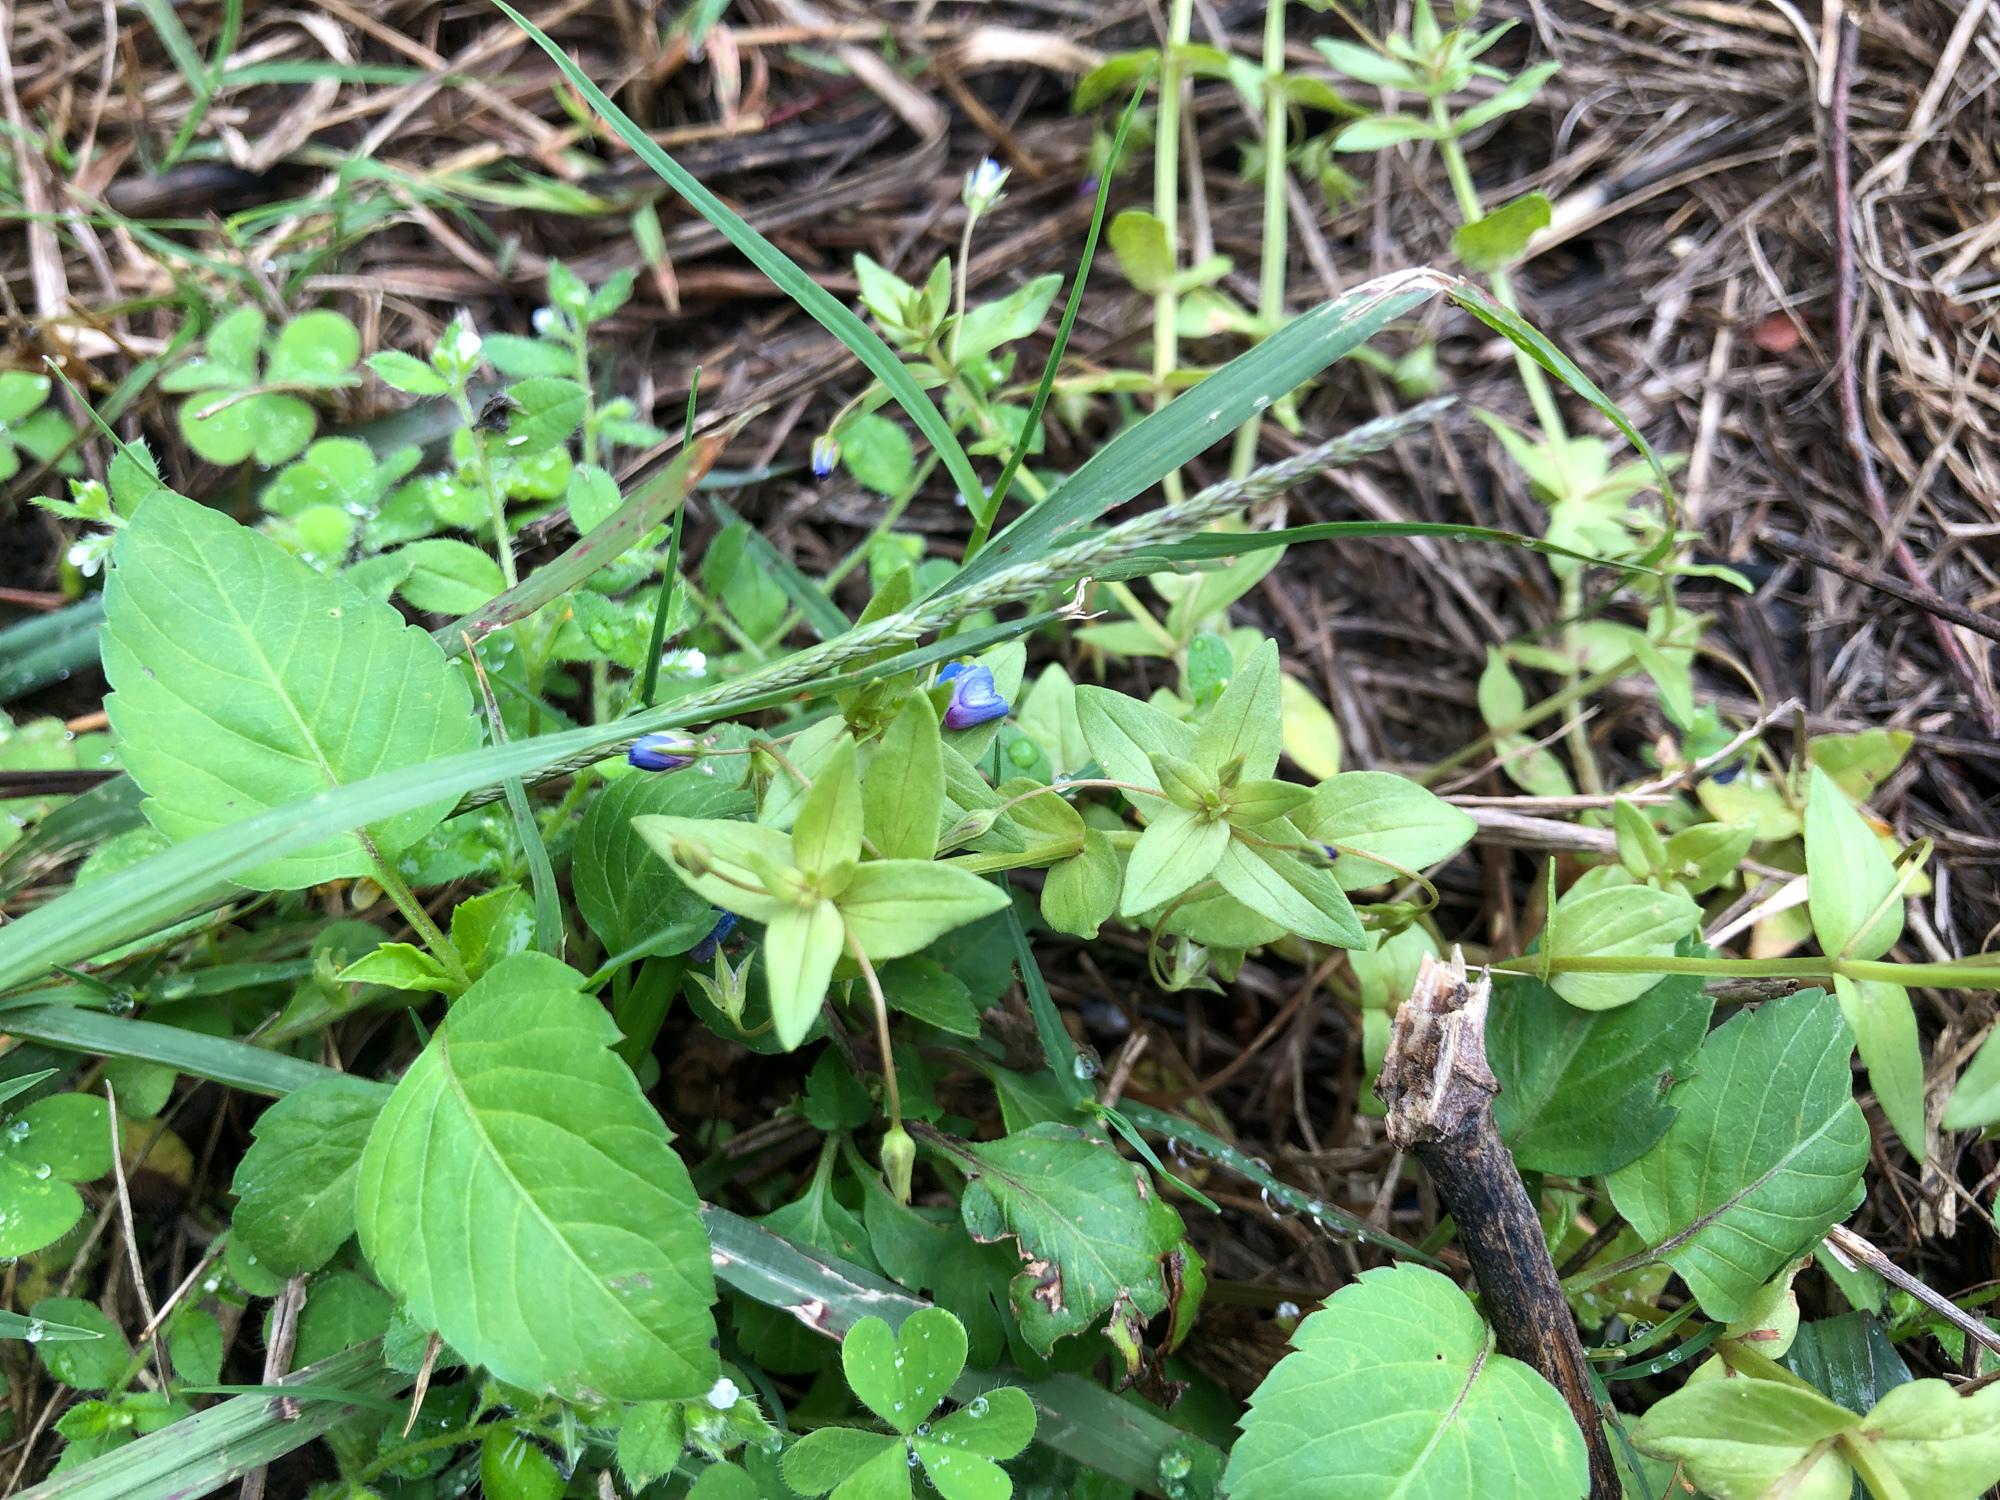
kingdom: Plantae
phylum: Tracheophyta
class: Magnoliopsida
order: Ericales
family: Primulaceae
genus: Lysimachia
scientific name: Lysimachia loeflingii
